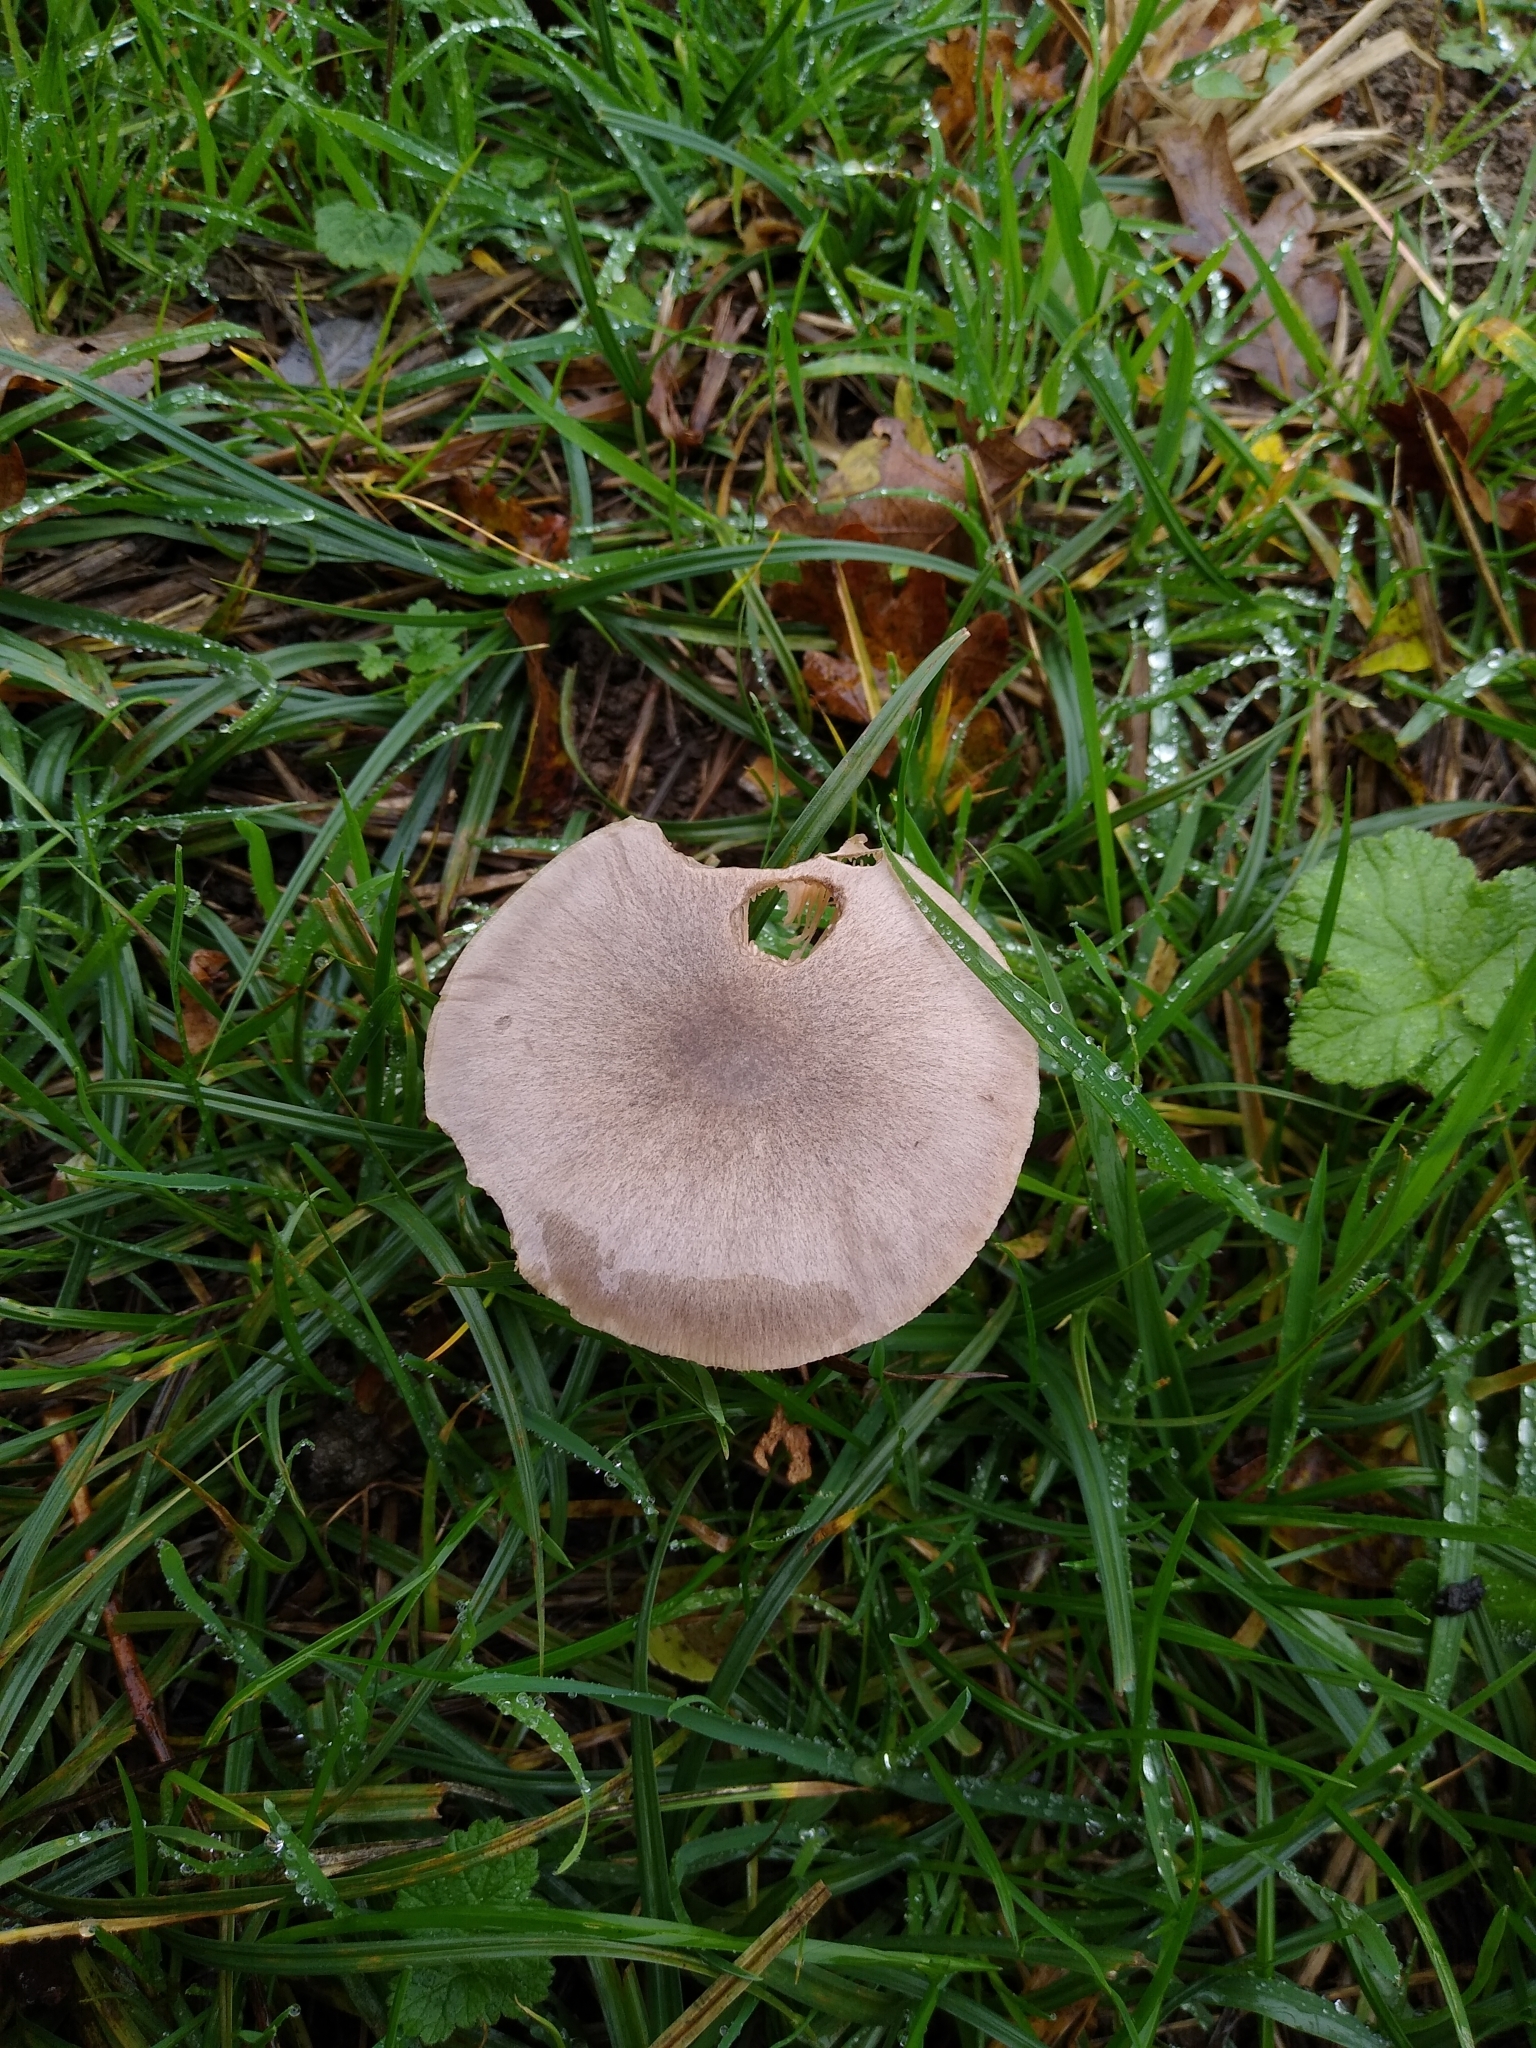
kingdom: Fungi
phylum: Basidiomycota
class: Agaricomycetes
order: Agaricales
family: Pluteaceae
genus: Volvopluteus
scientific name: Volvopluteus gloiocephalus
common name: Stubble rosegill
